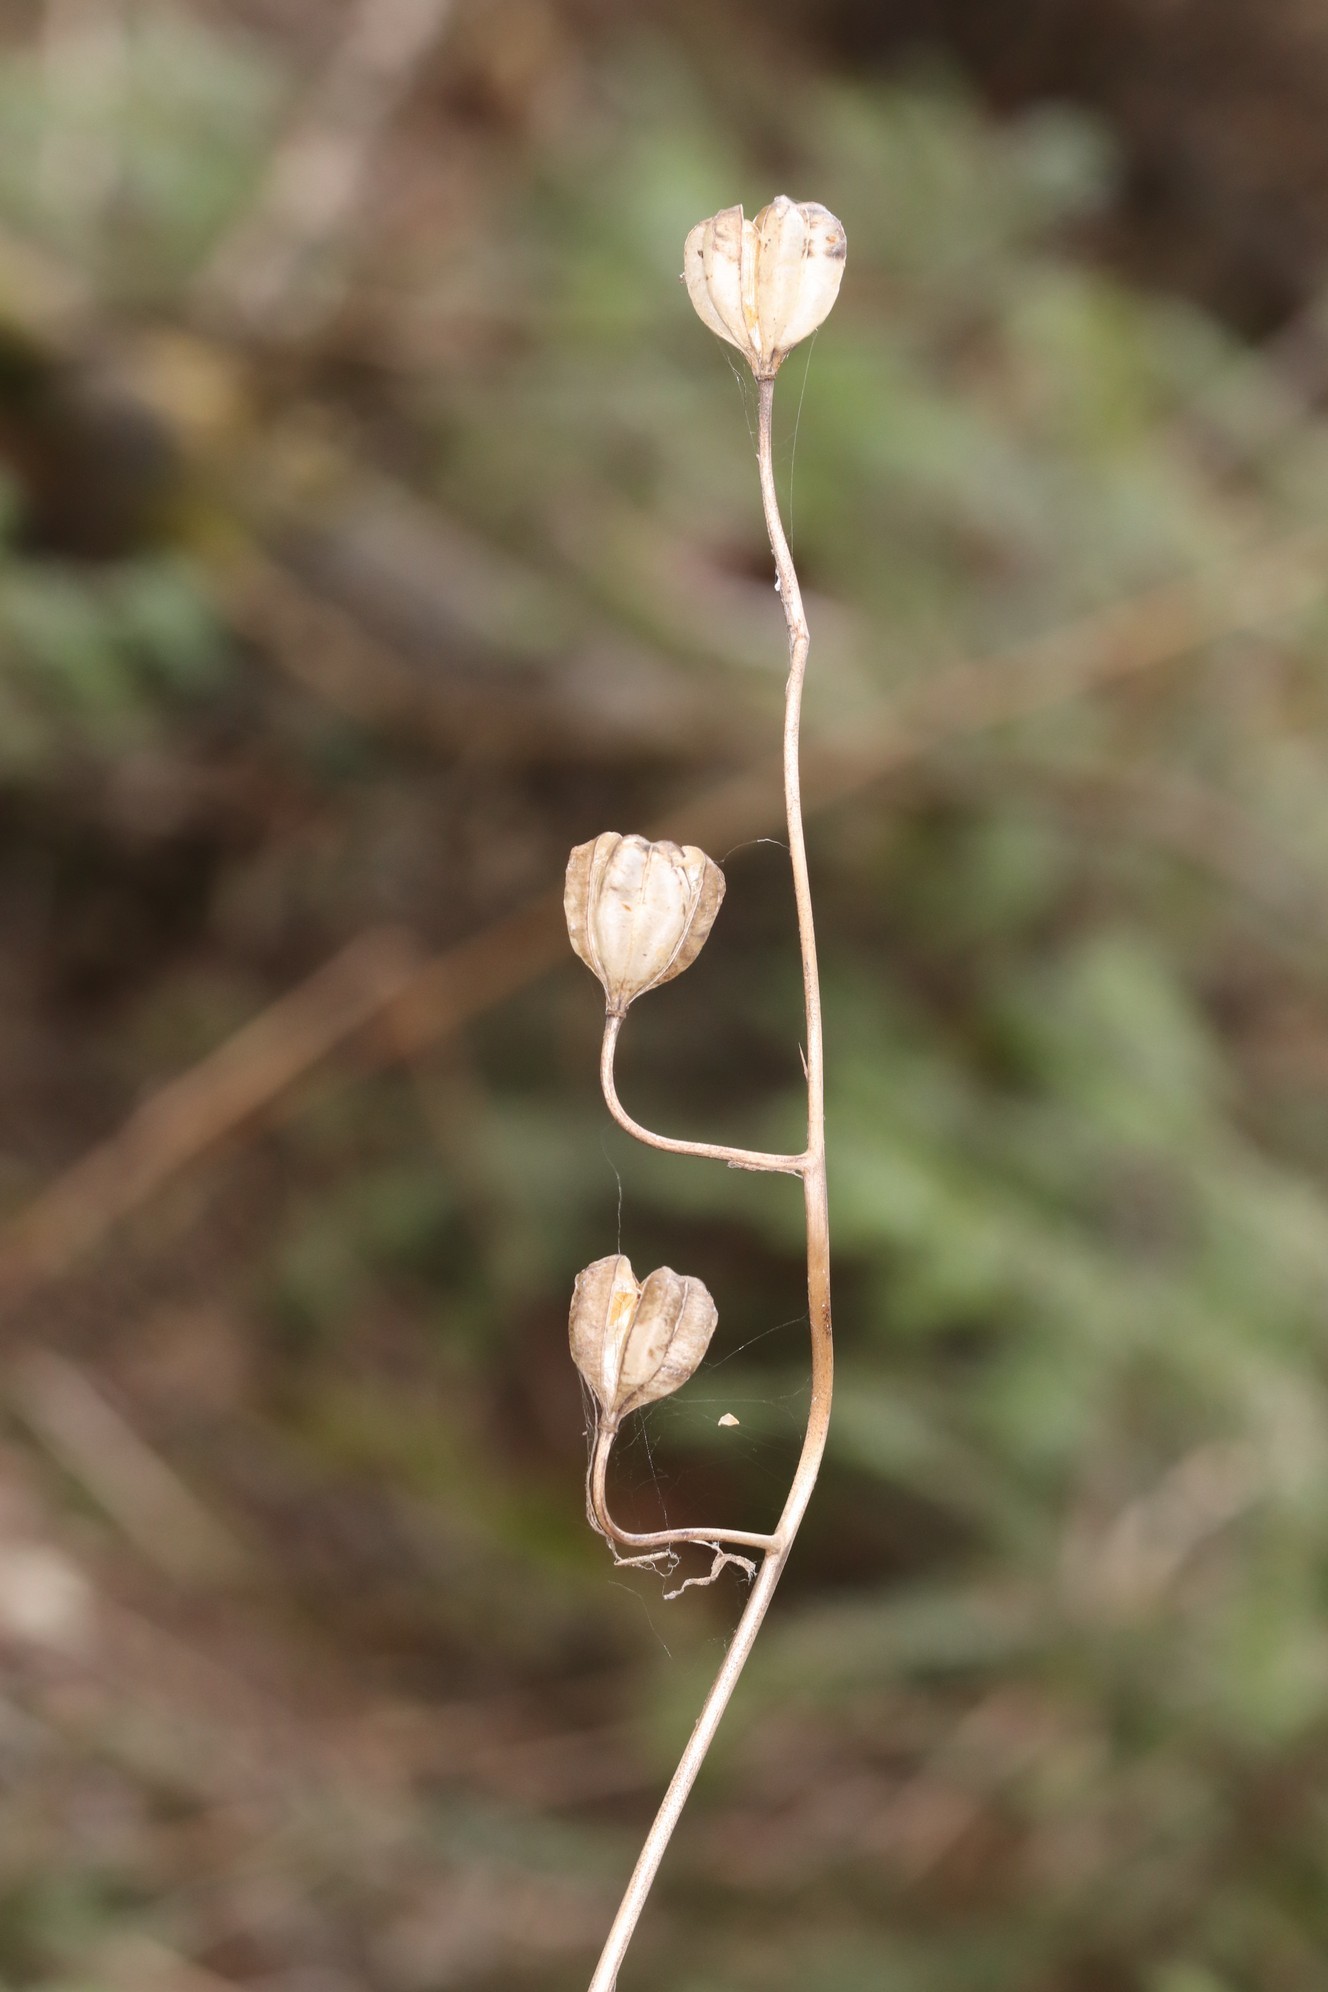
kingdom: Plantae
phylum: Tracheophyta
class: Liliopsida
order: Liliales
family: Liliaceae
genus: Lilium
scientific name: Lilium martagon
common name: Martagon lily
